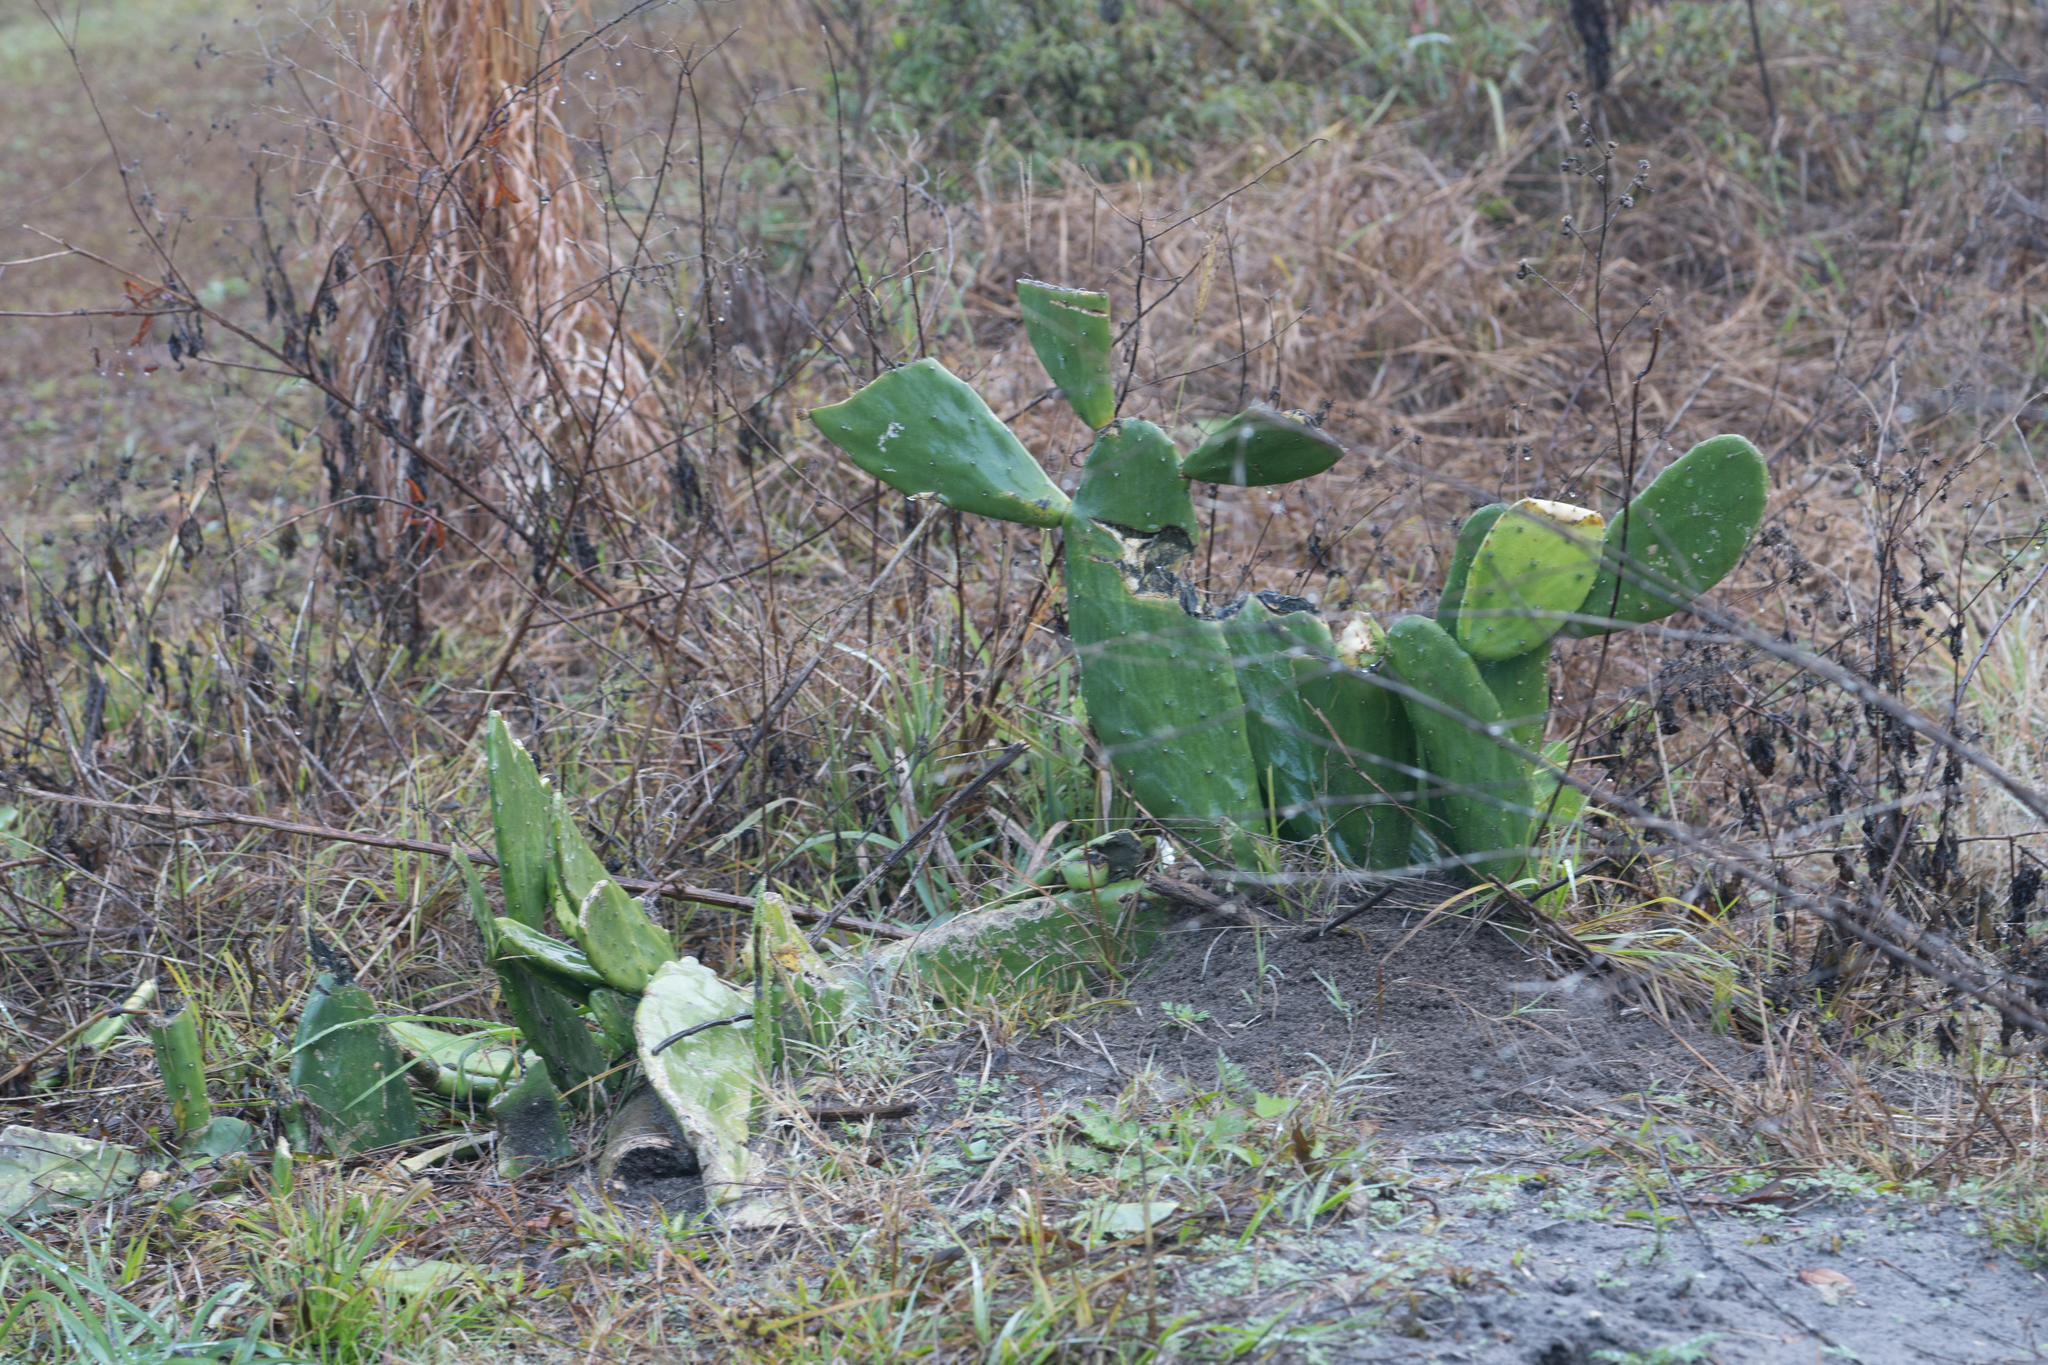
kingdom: Plantae
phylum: Tracheophyta
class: Magnoliopsida
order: Caryophyllales
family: Cactaceae
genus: Opuntia
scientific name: Opuntia cochenillifera
